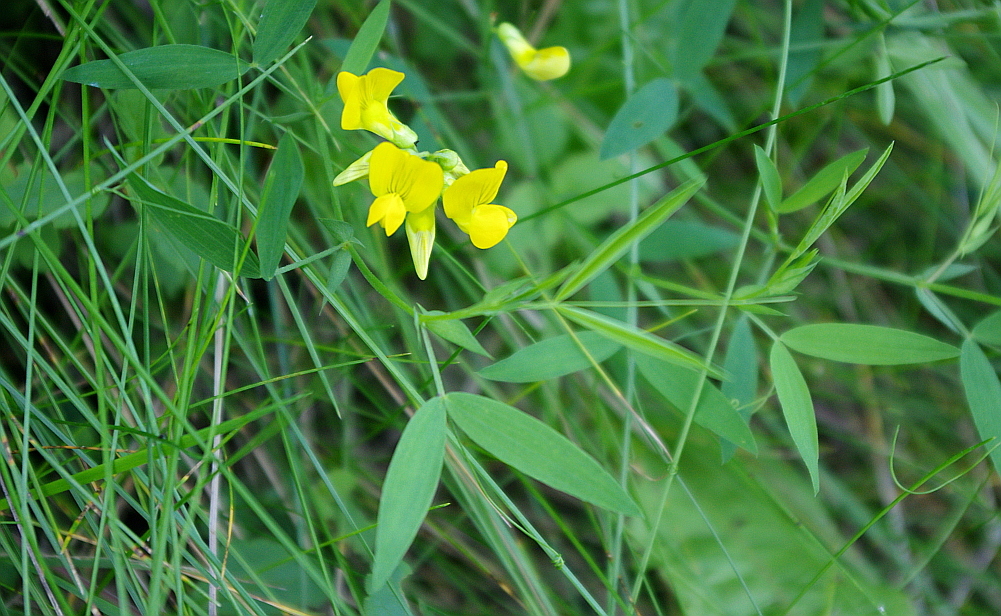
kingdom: Plantae
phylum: Tracheophyta
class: Magnoliopsida
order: Fabales
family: Fabaceae
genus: Lathyrus
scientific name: Lathyrus pratensis
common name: Meadow vetchling
